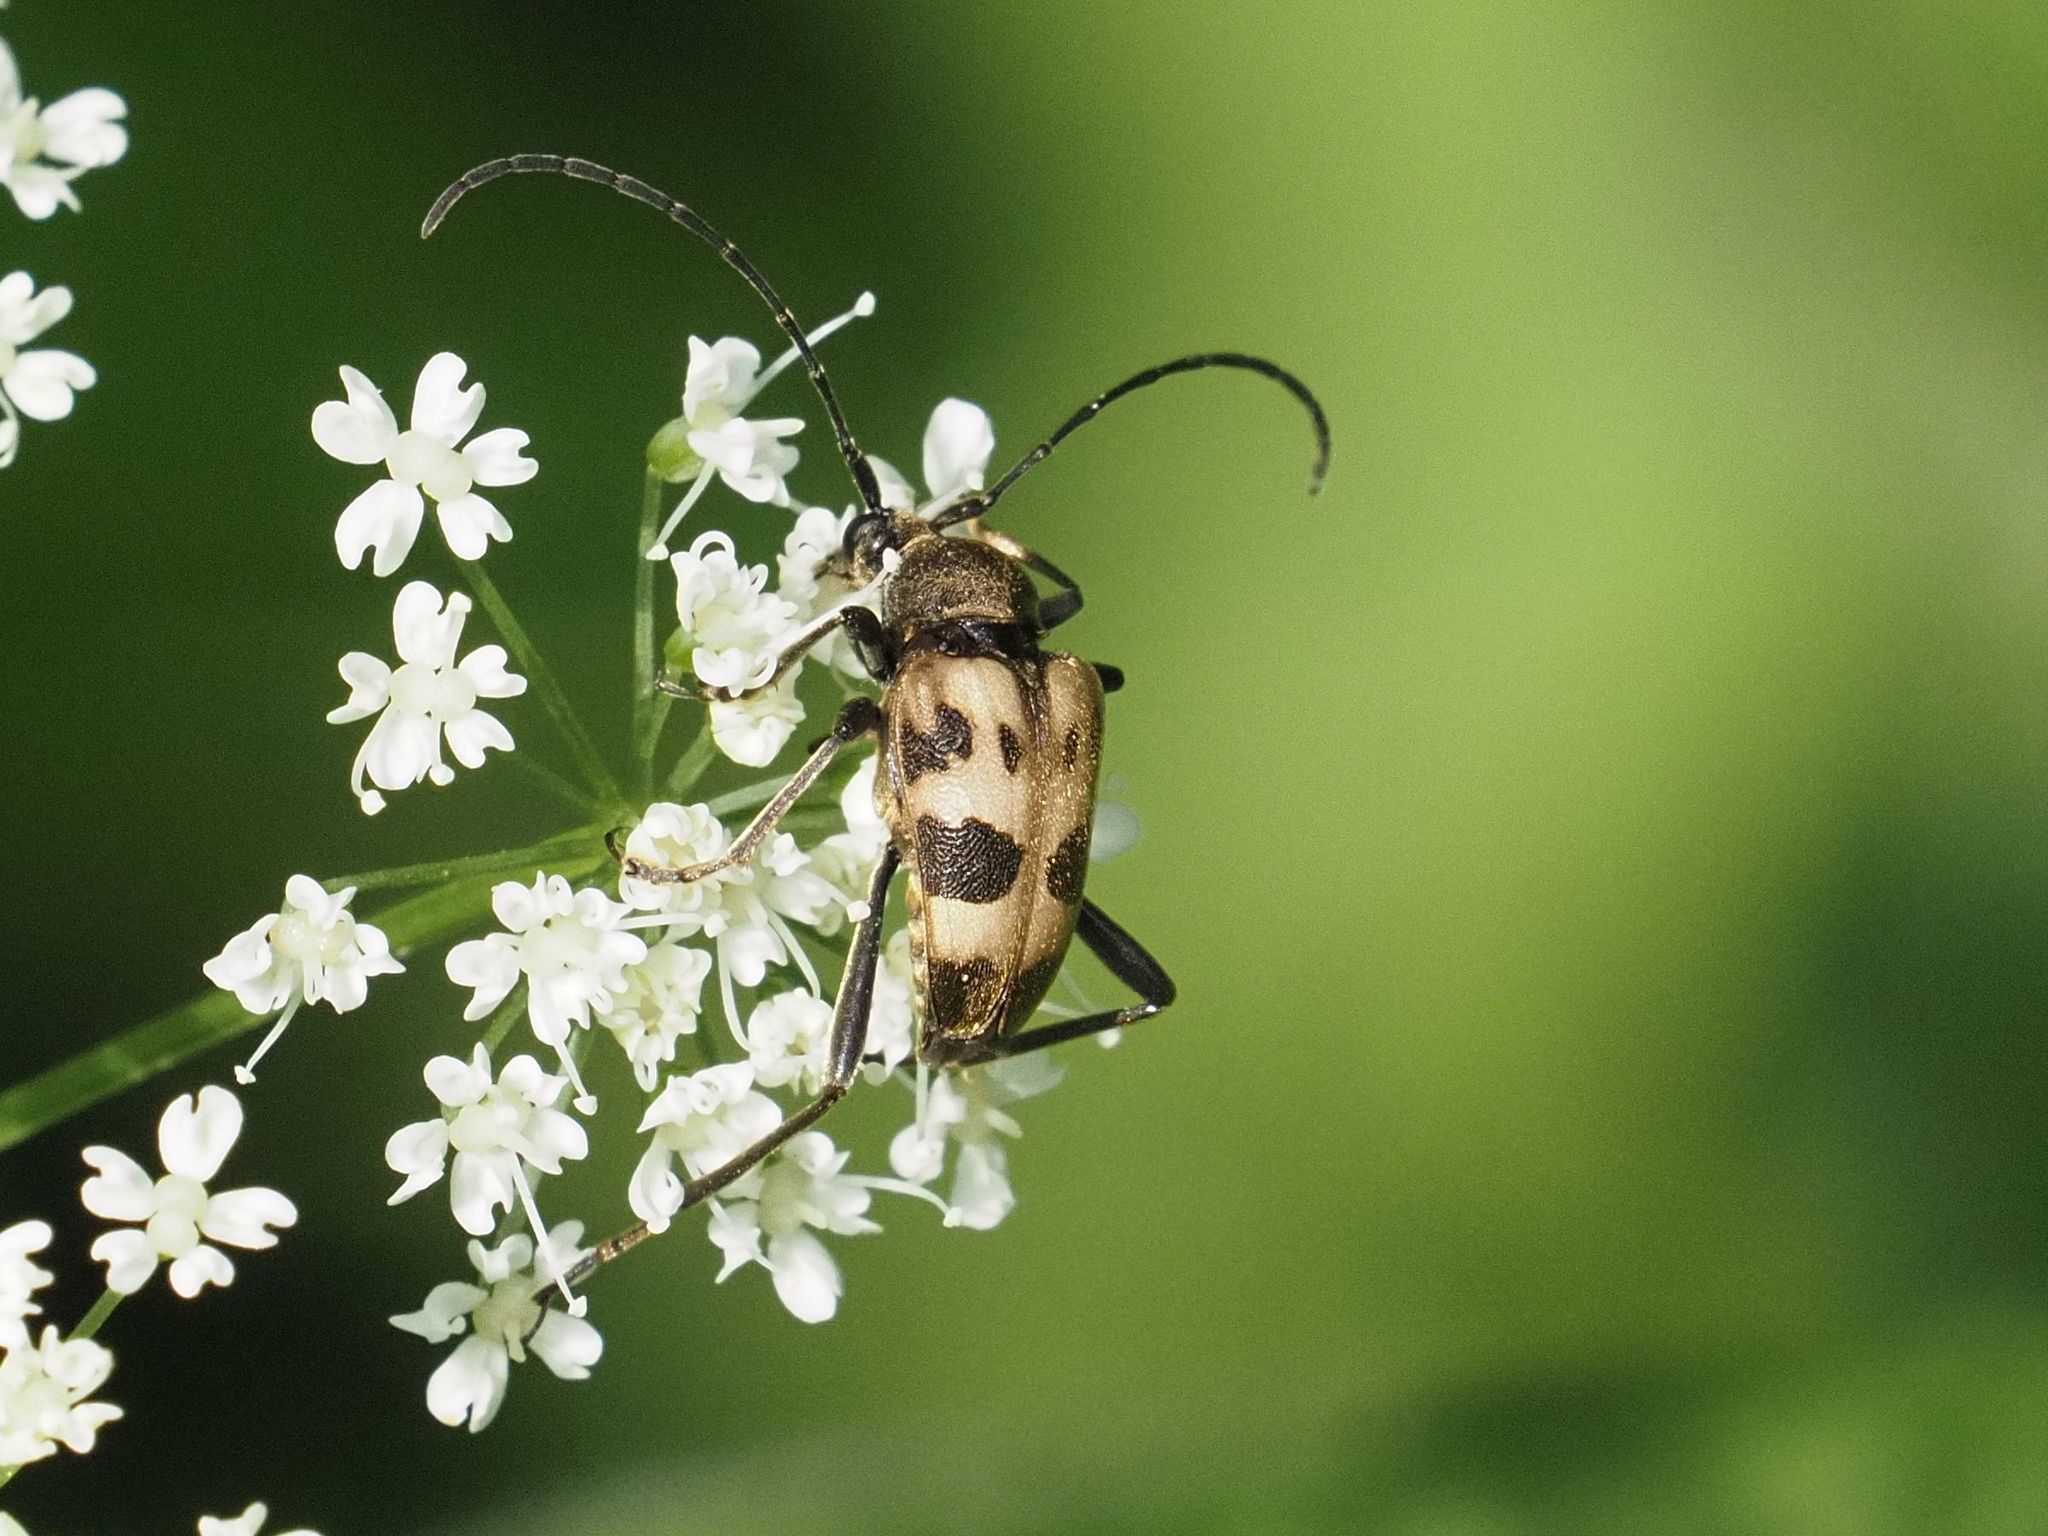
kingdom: Animalia
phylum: Arthropoda
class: Insecta
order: Coleoptera
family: Cerambycidae
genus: Pachytodes
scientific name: Pachytodes cerambyciformis
